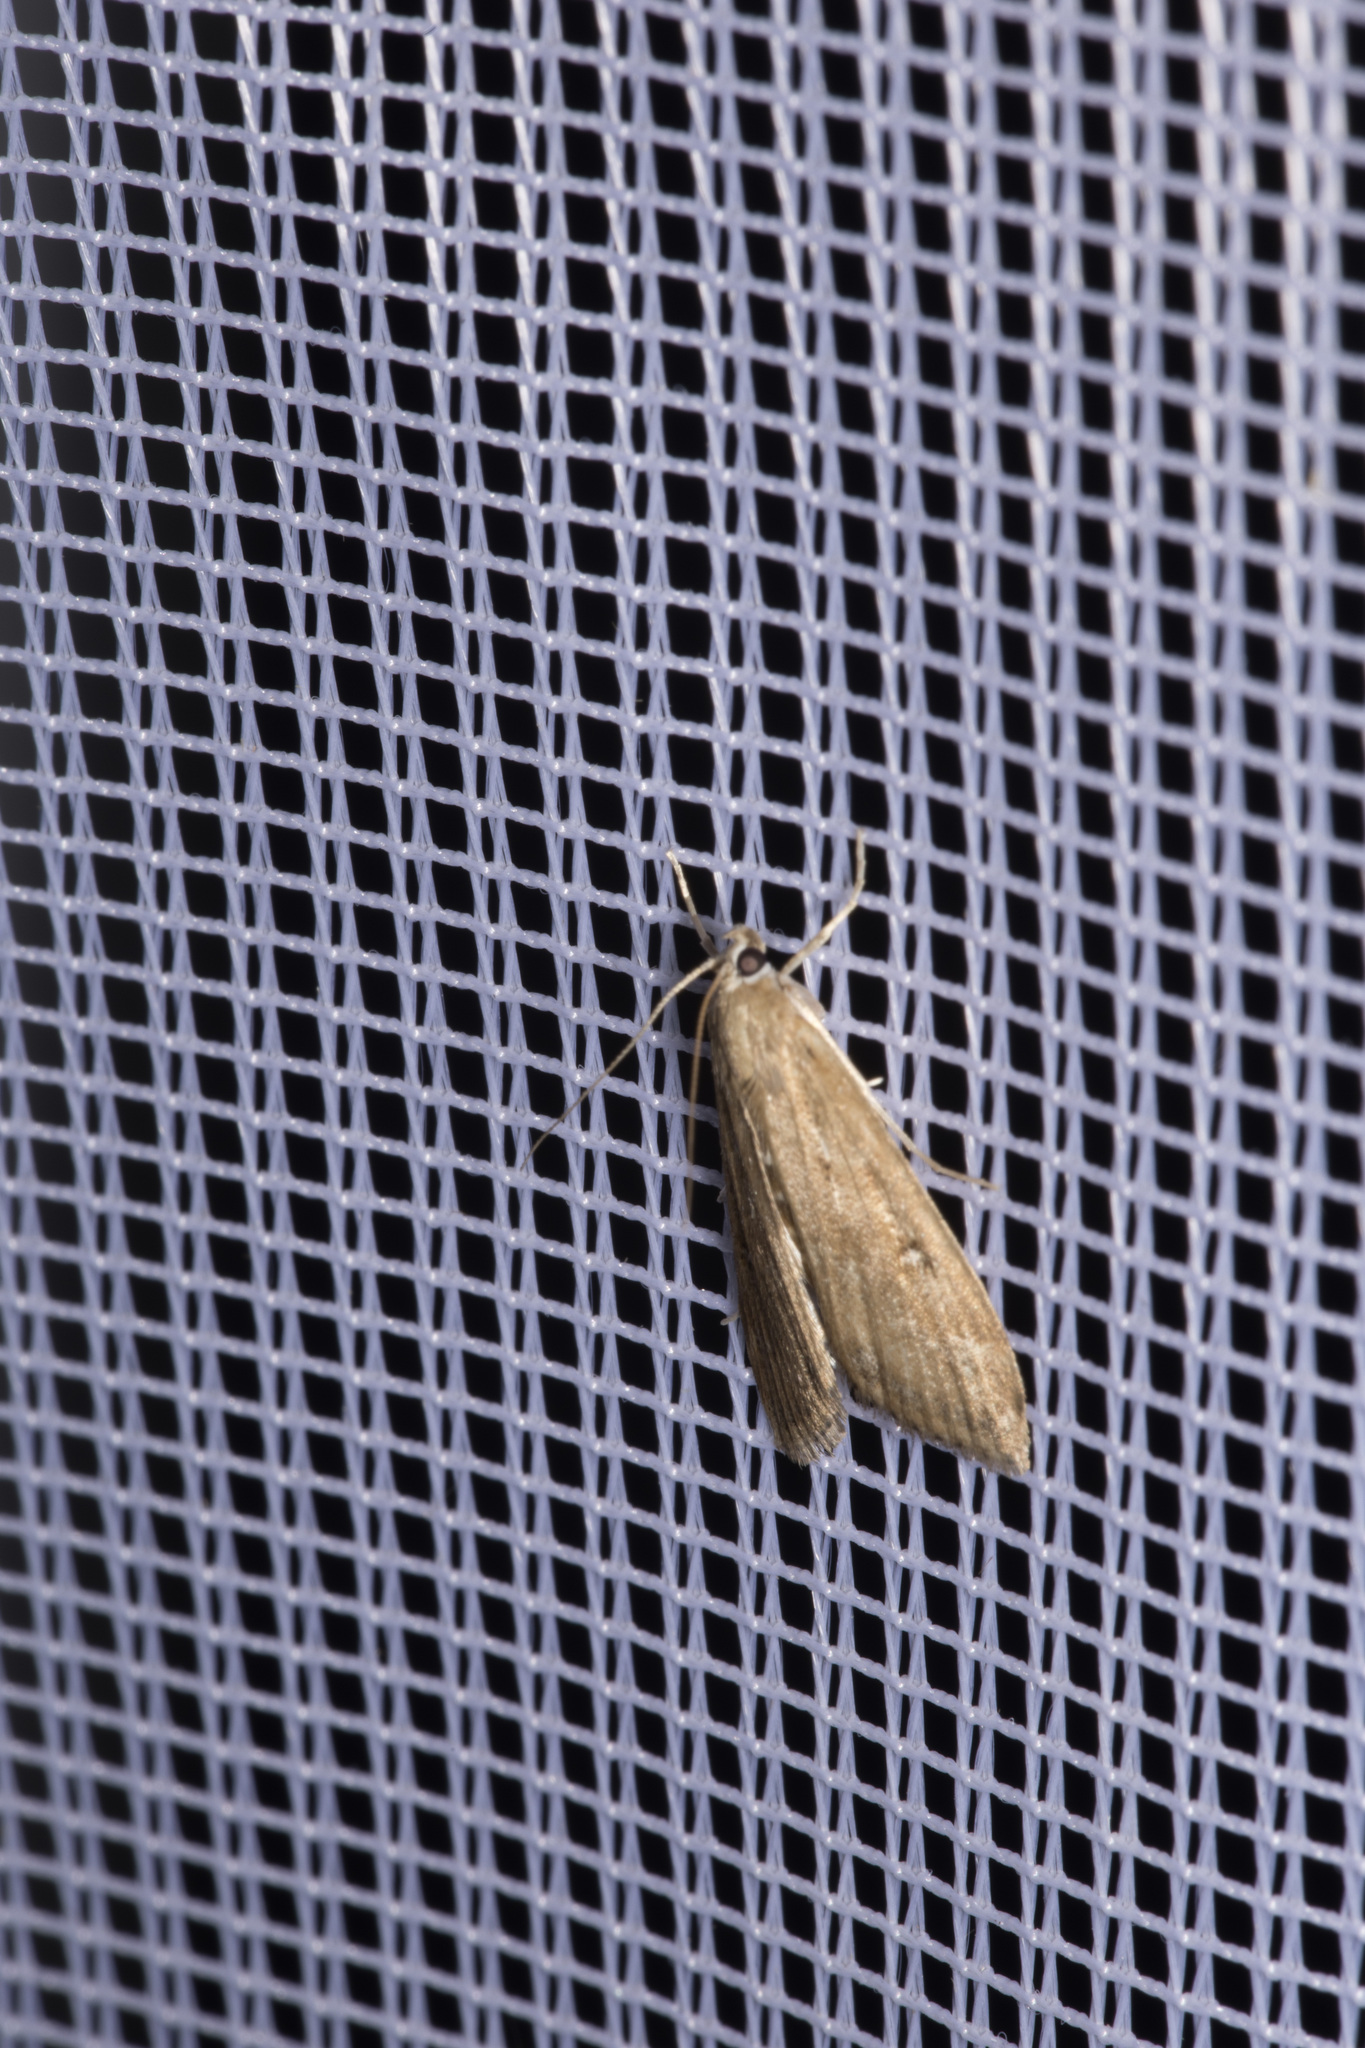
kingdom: Animalia
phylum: Arthropoda
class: Insecta
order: Lepidoptera
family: Crambidae
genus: Parapoynx
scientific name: Parapoynx stratiotata
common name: Ringed china-mark
